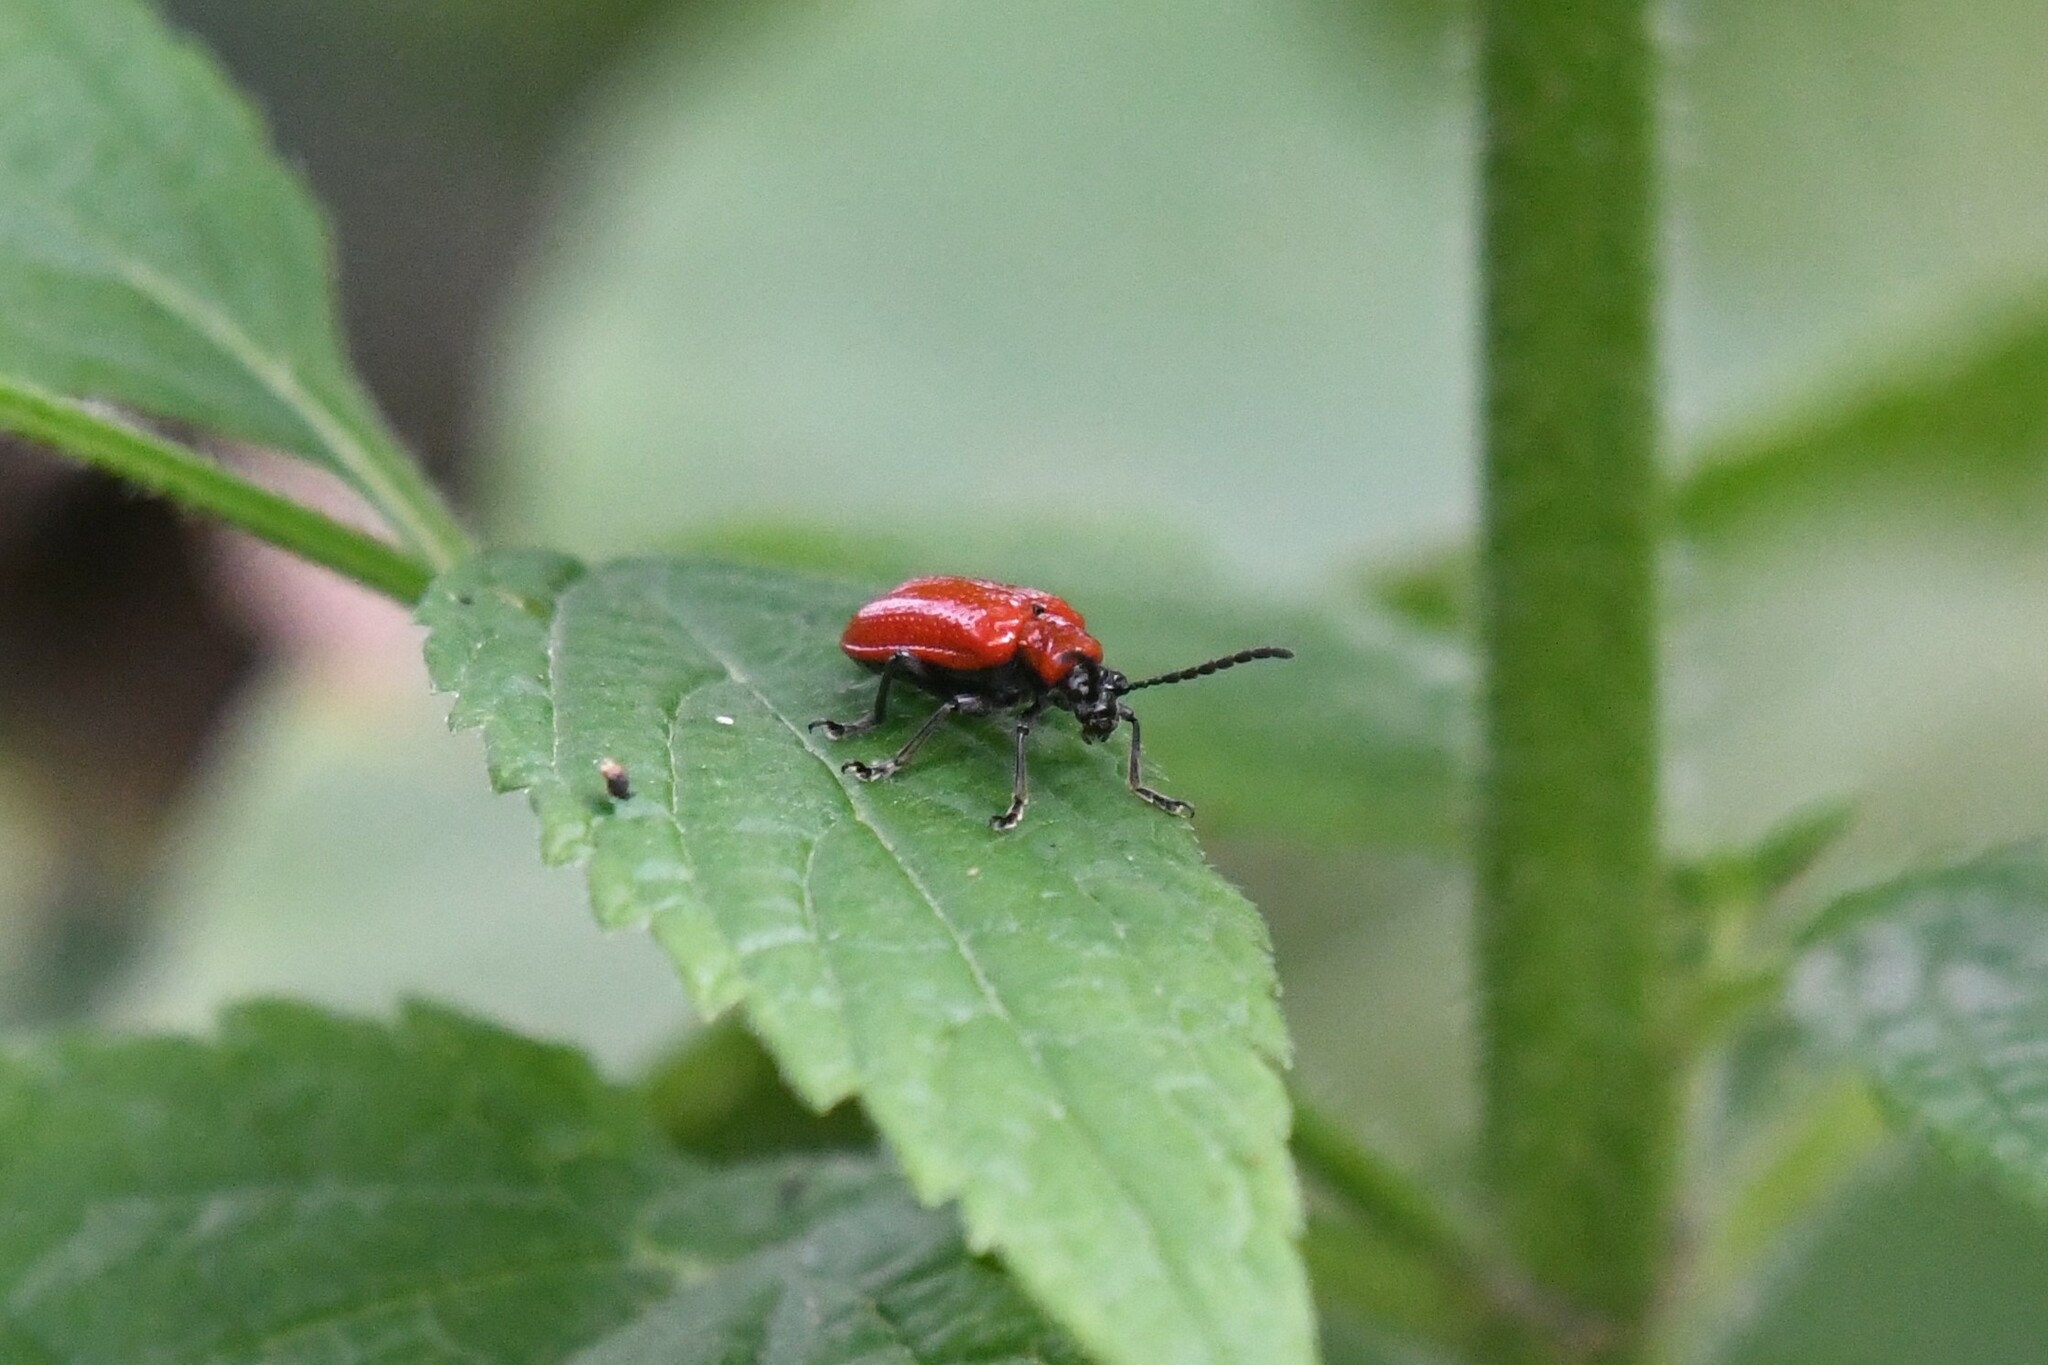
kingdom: Animalia
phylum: Arthropoda
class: Insecta
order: Coleoptera
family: Chrysomelidae
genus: Lilioceris
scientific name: Lilioceris lilii
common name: Lily beetle
